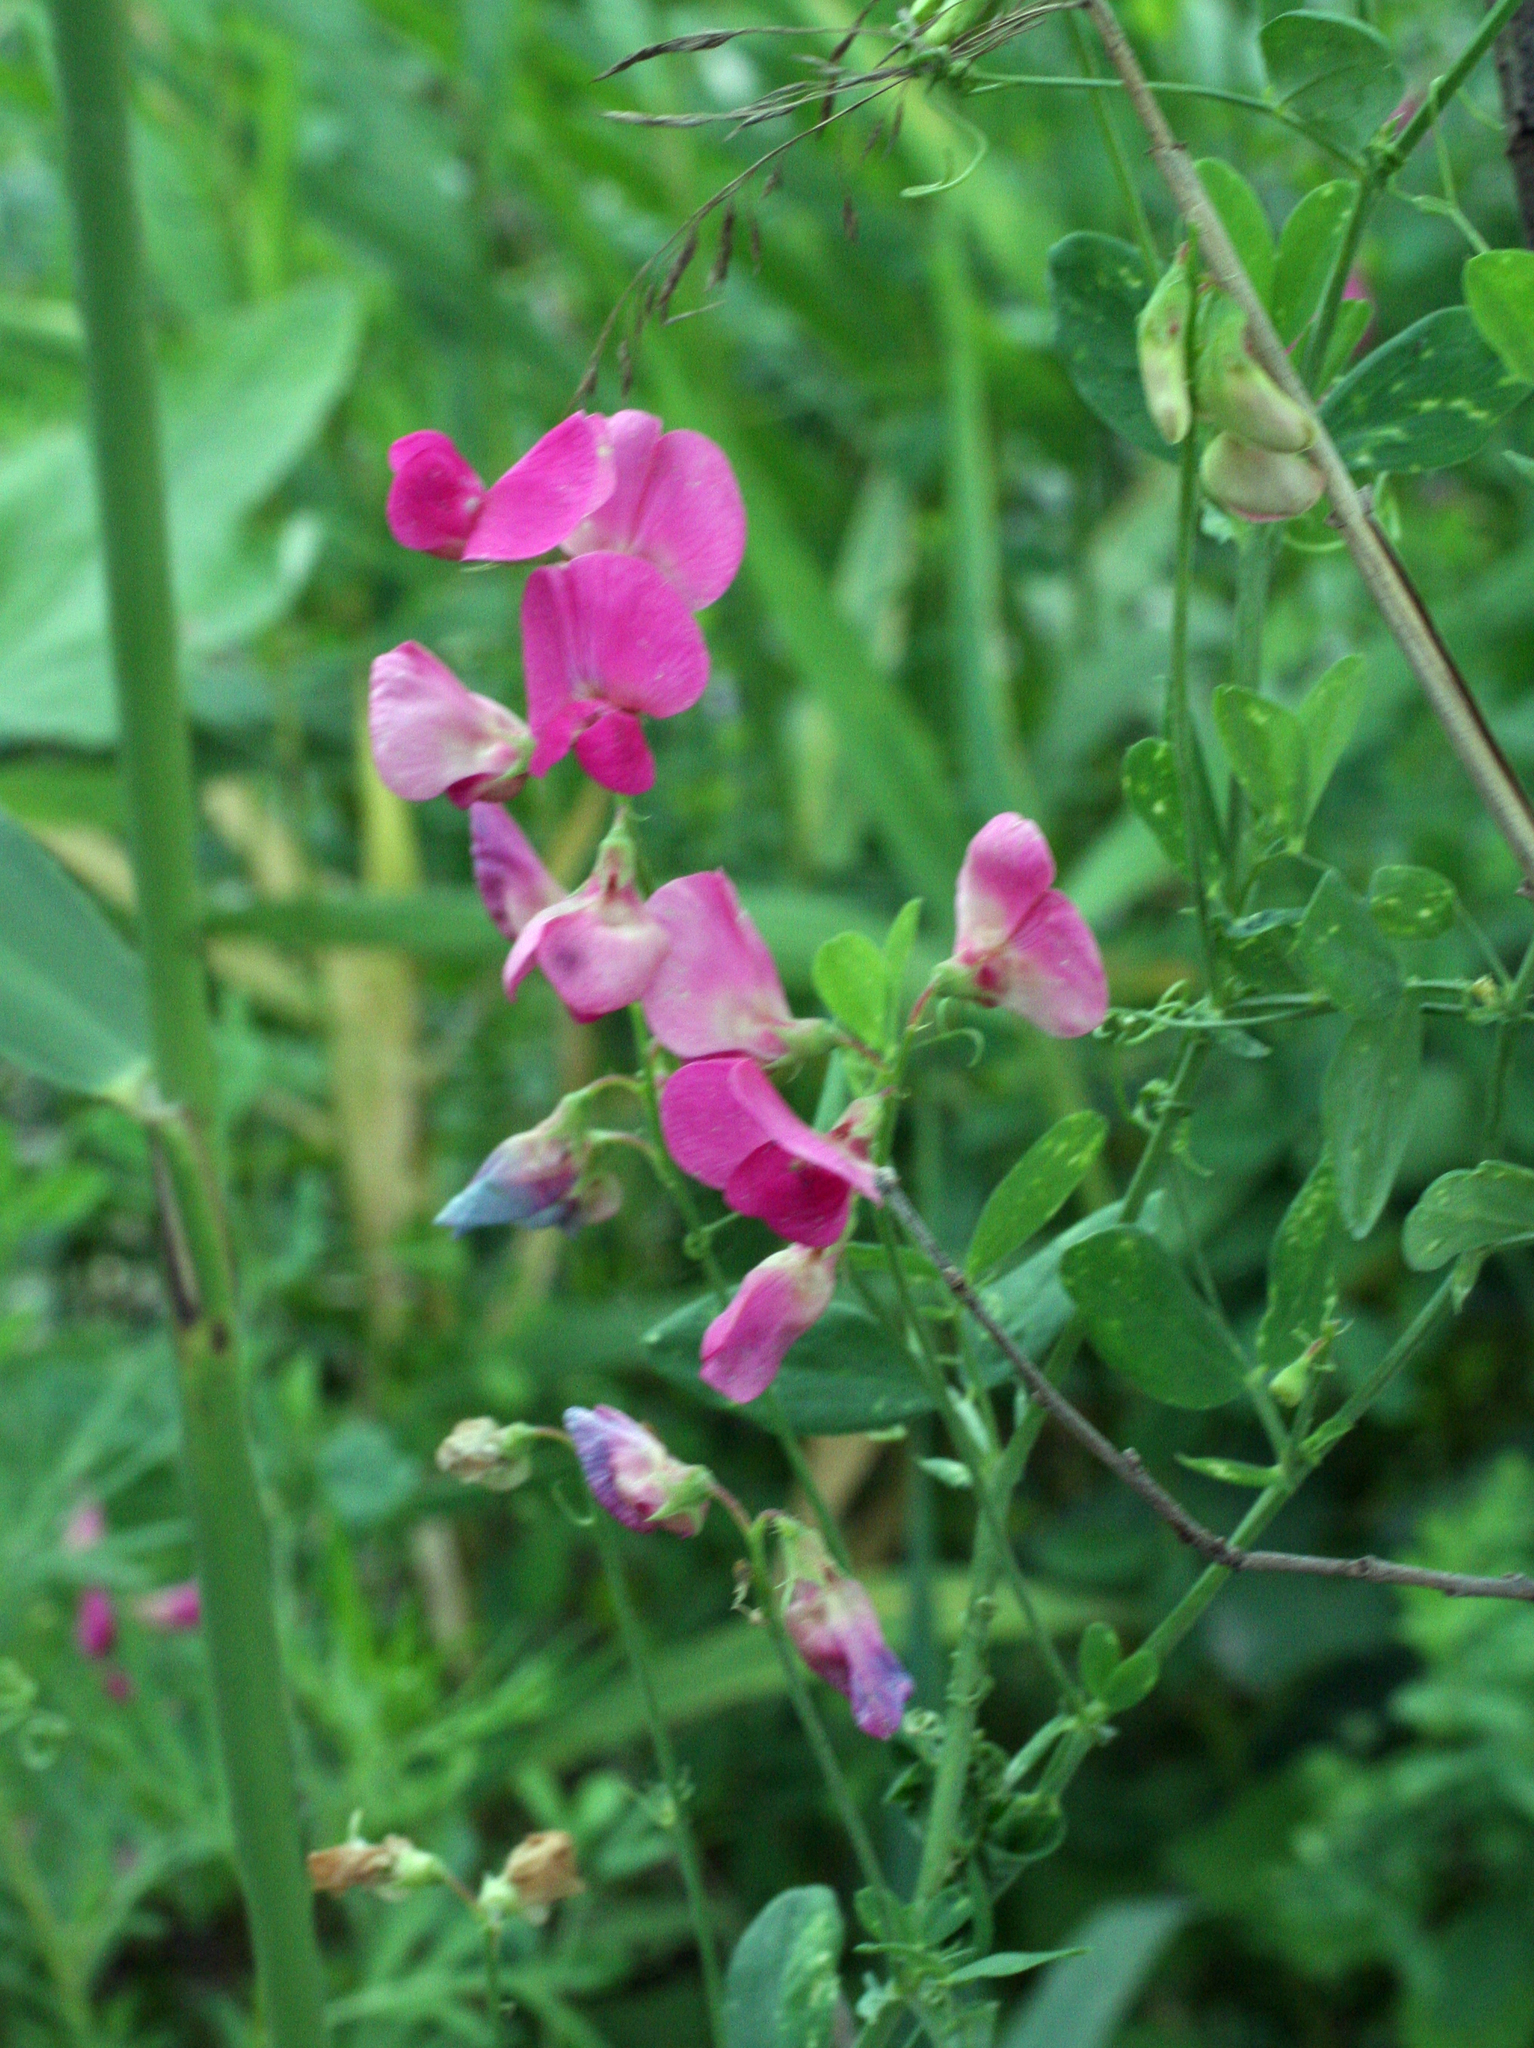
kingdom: Plantae
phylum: Tracheophyta
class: Magnoliopsida
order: Fabales
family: Fabaceae
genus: Lathyrus
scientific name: Lathyrus tuberosus
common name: Tuberous pea
